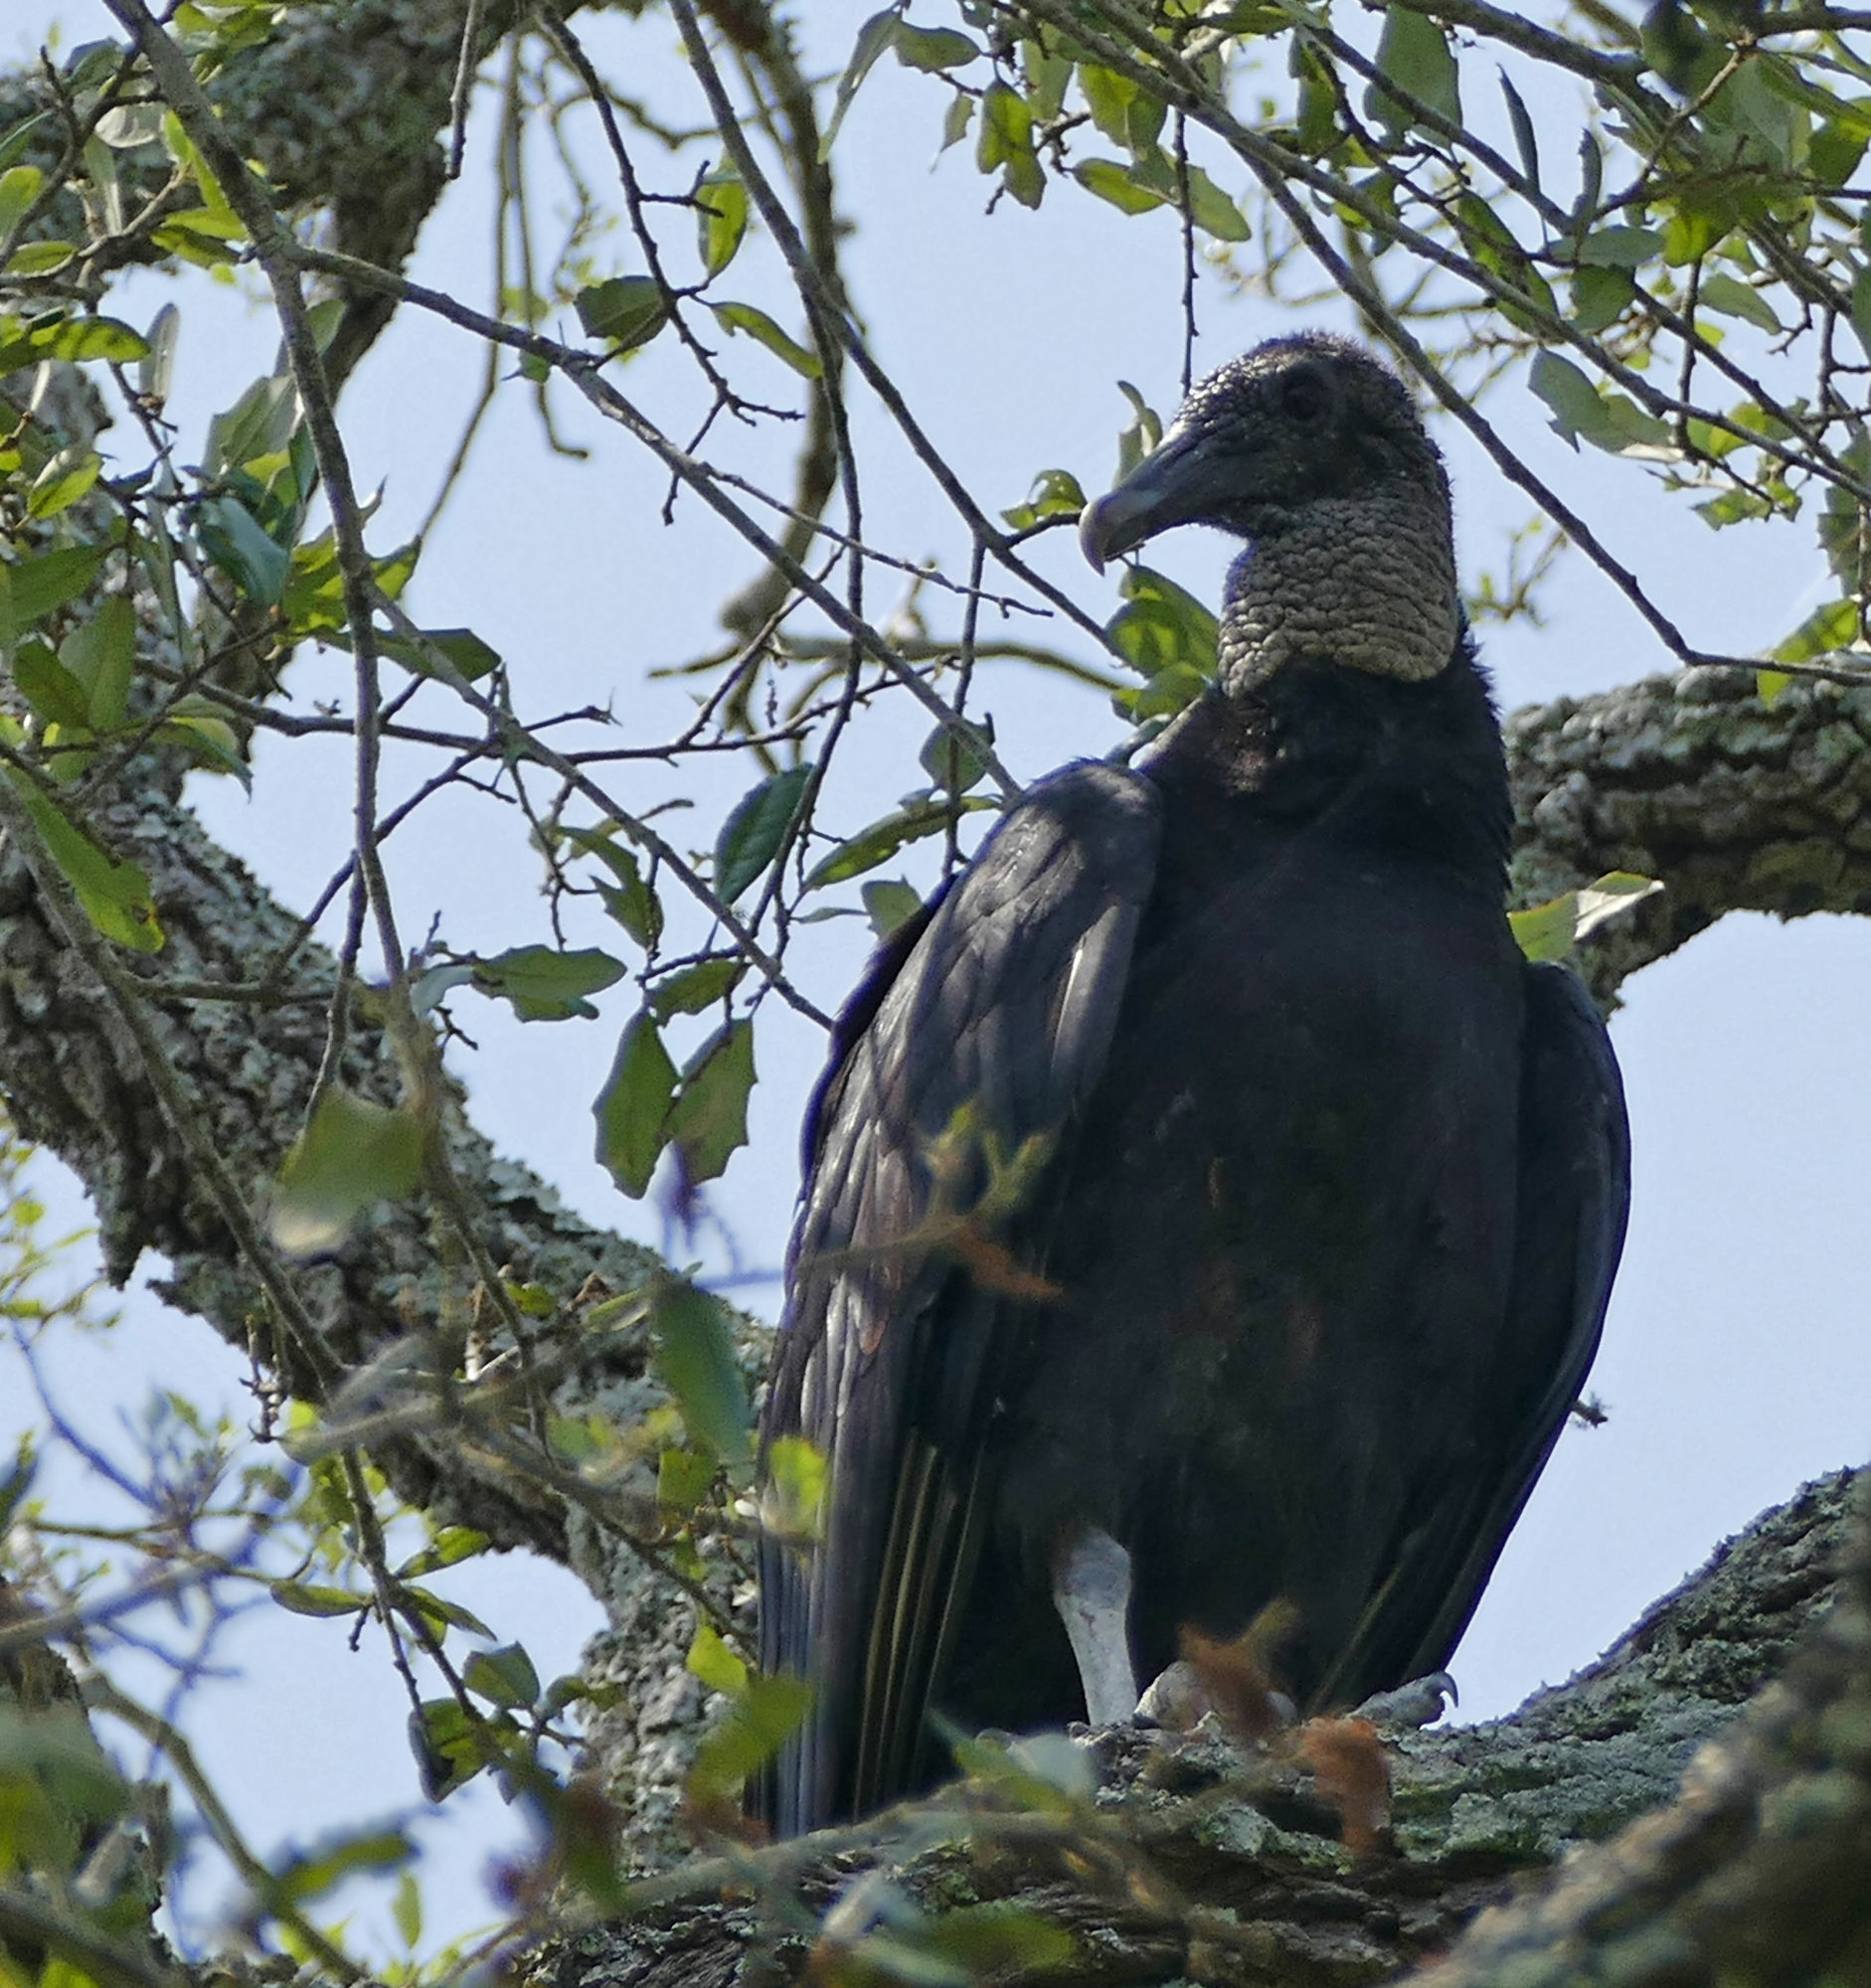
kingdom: Animalia
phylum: Chordata
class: Aves
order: Accipitriformes
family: Cathartidae
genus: Coragyps
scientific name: Coragyps atratus
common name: Black vulture
